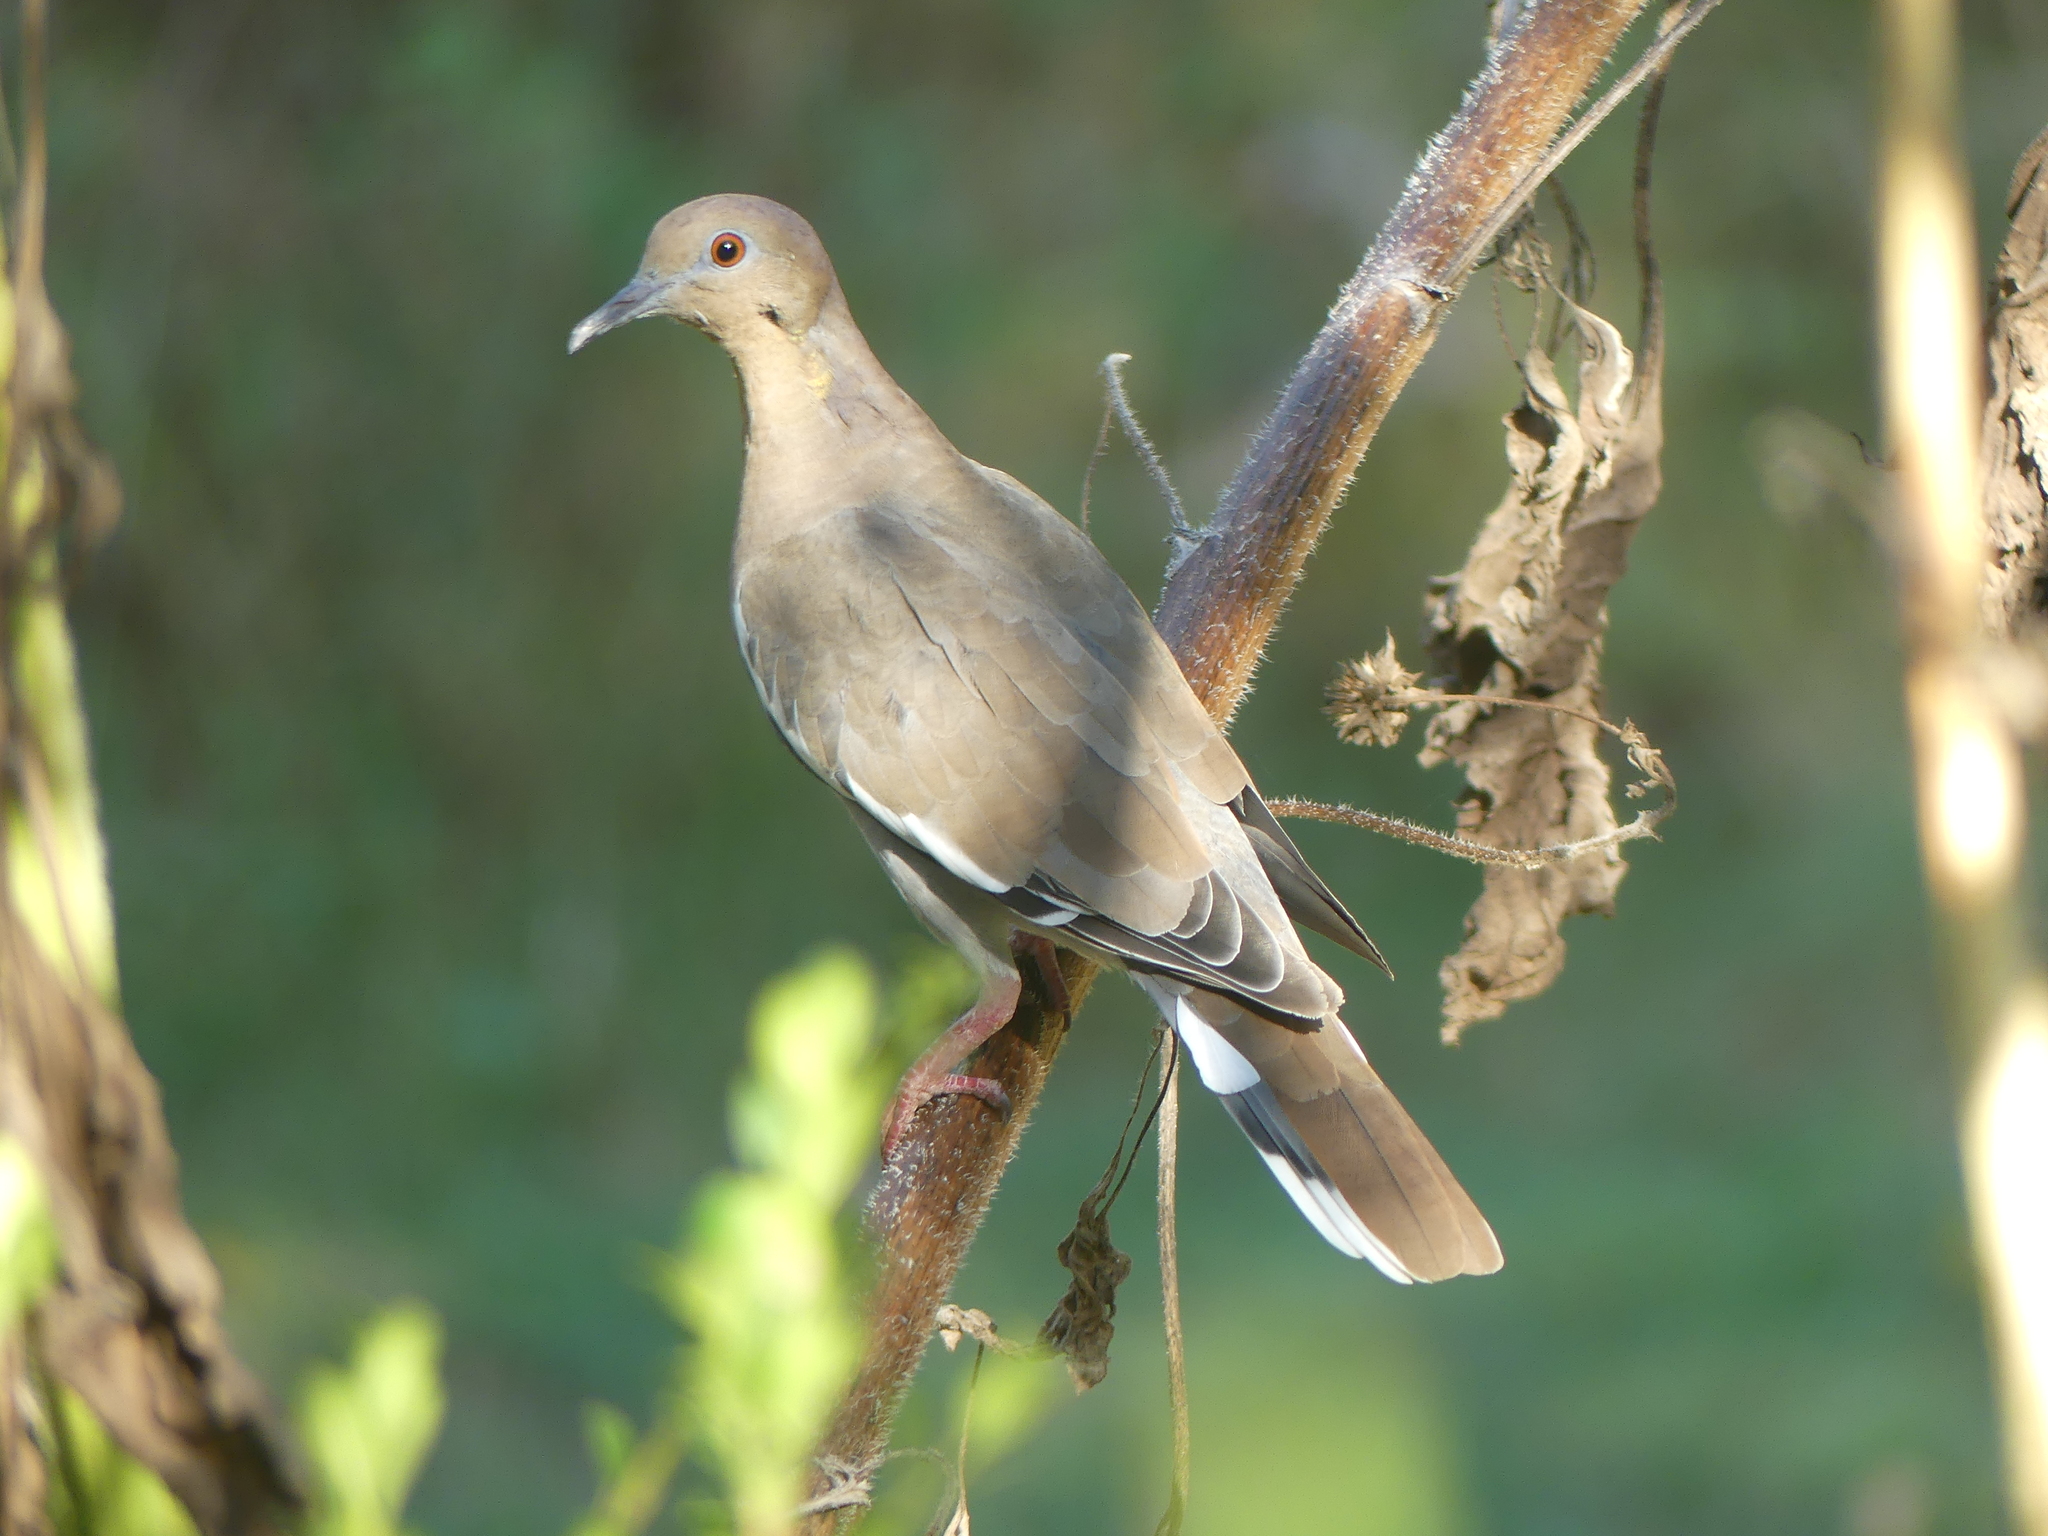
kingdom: Animalia
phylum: Chordata
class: Aves
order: Columbiformes
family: Columbidae
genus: Zenaida
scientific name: Zenaida asiatica
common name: White-winged dove
